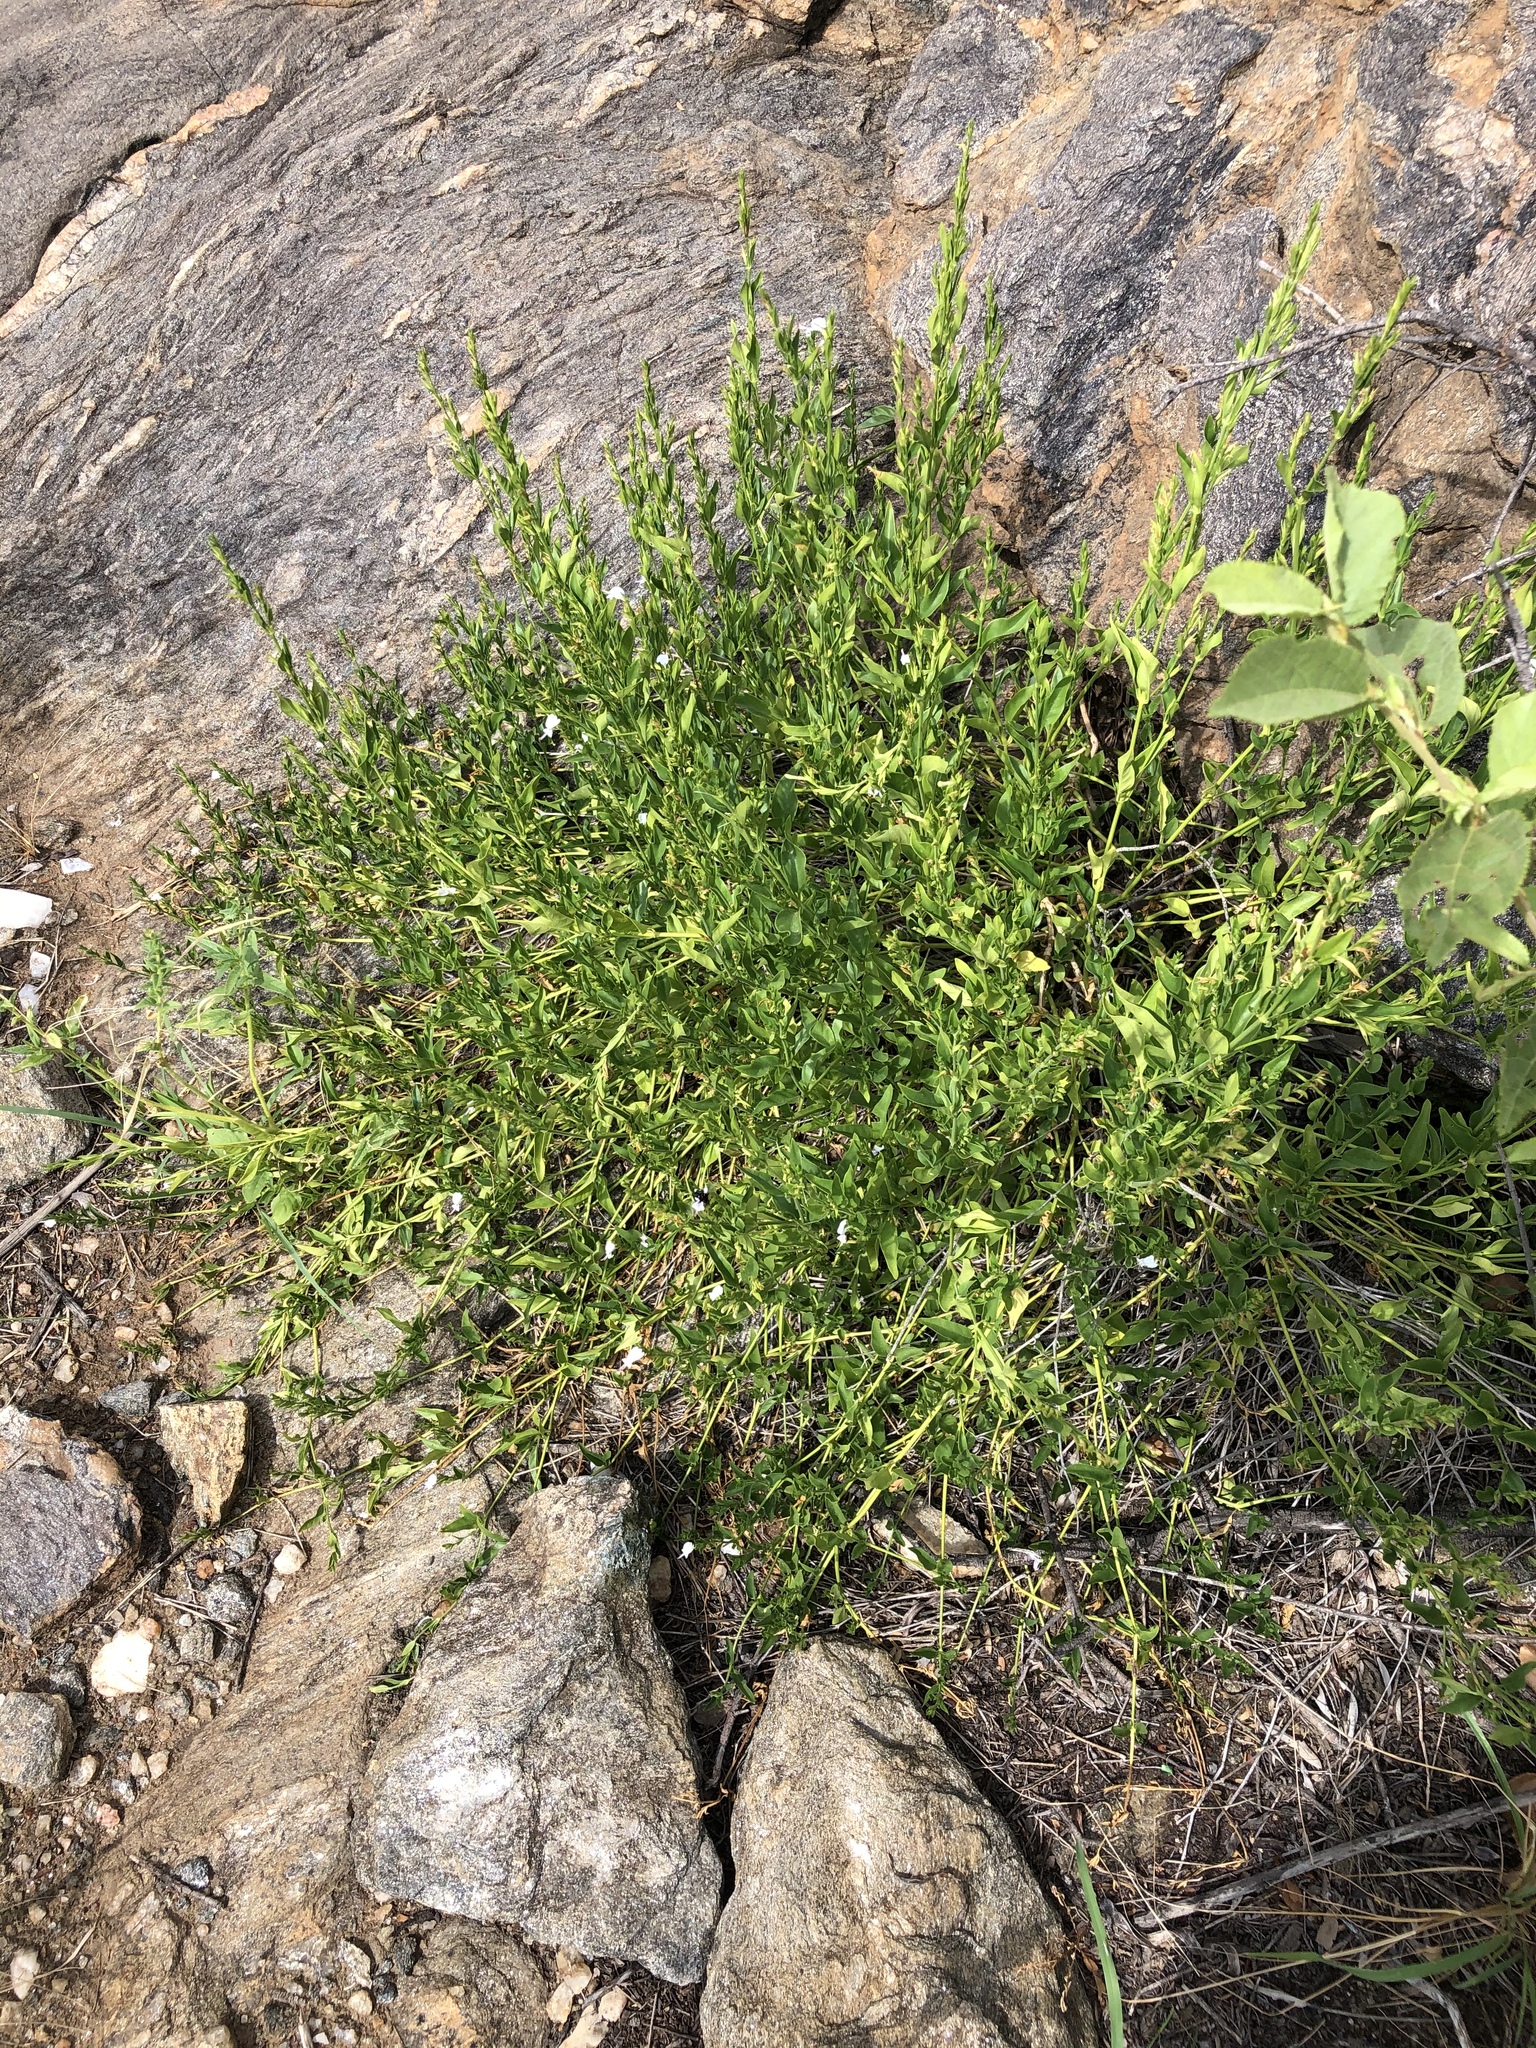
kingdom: Plantae
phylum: Tracheophyta
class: Magnoliopsida
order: Lamiales
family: Acanthaceae
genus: Hypoestes
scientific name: Hypoestes forskaolii
